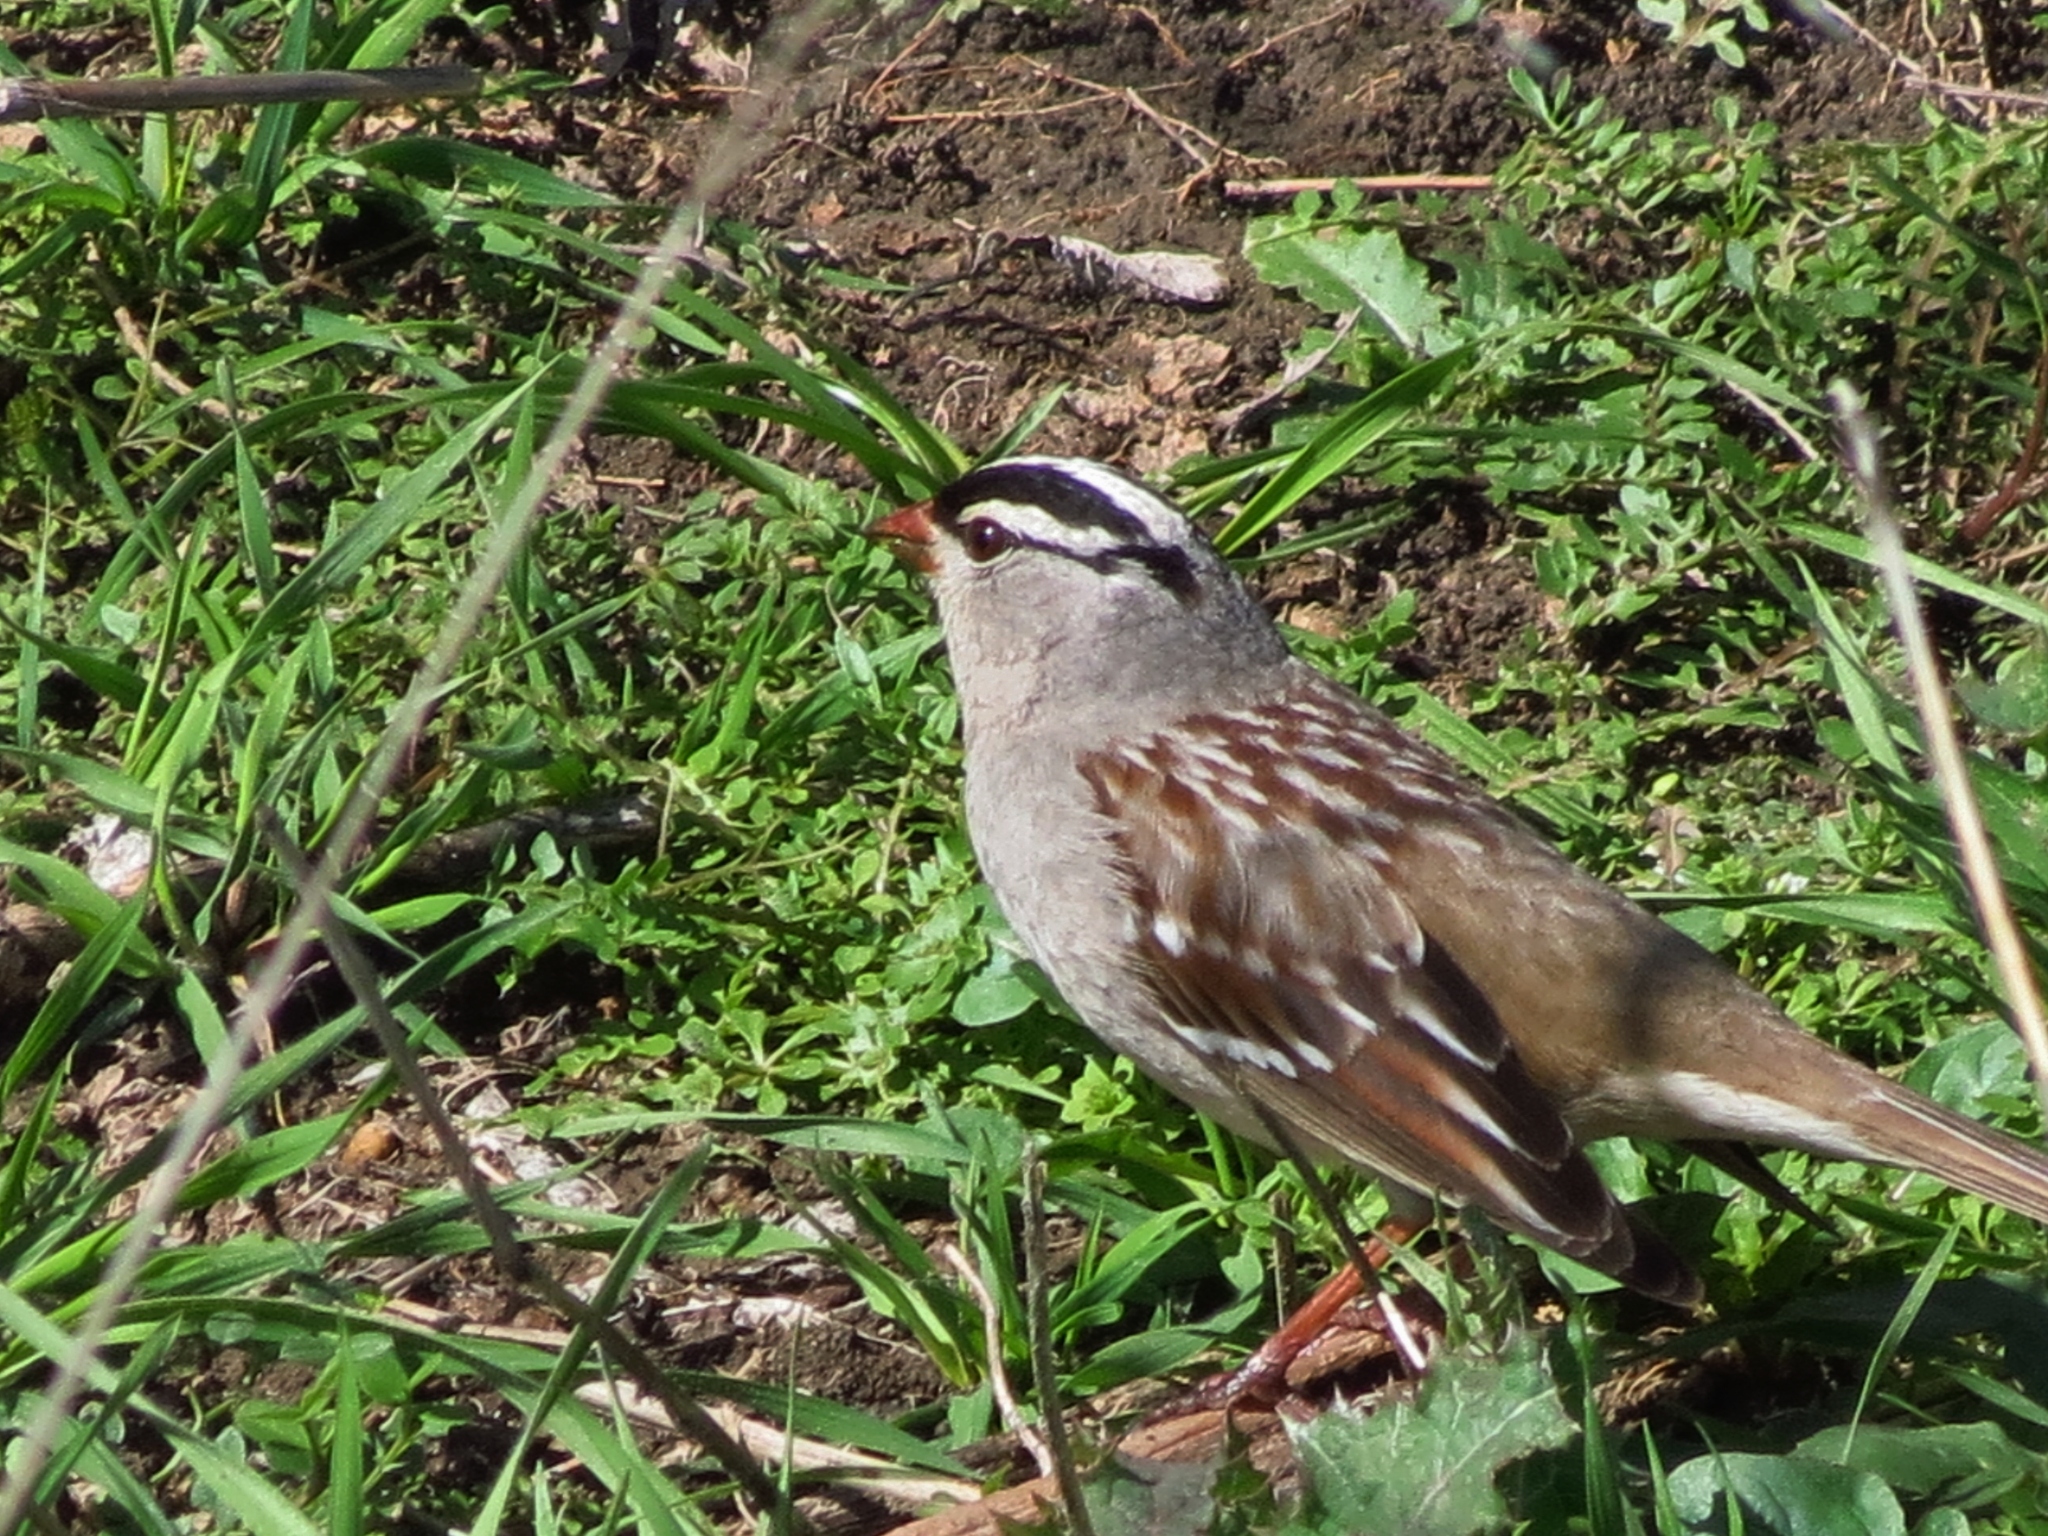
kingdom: Animalia
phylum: Chordata
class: Aves
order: Passeriformes
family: Passerellidae
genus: Zonotrichia
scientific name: Zonotrichia leucophrys
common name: White-crowned sparrow
